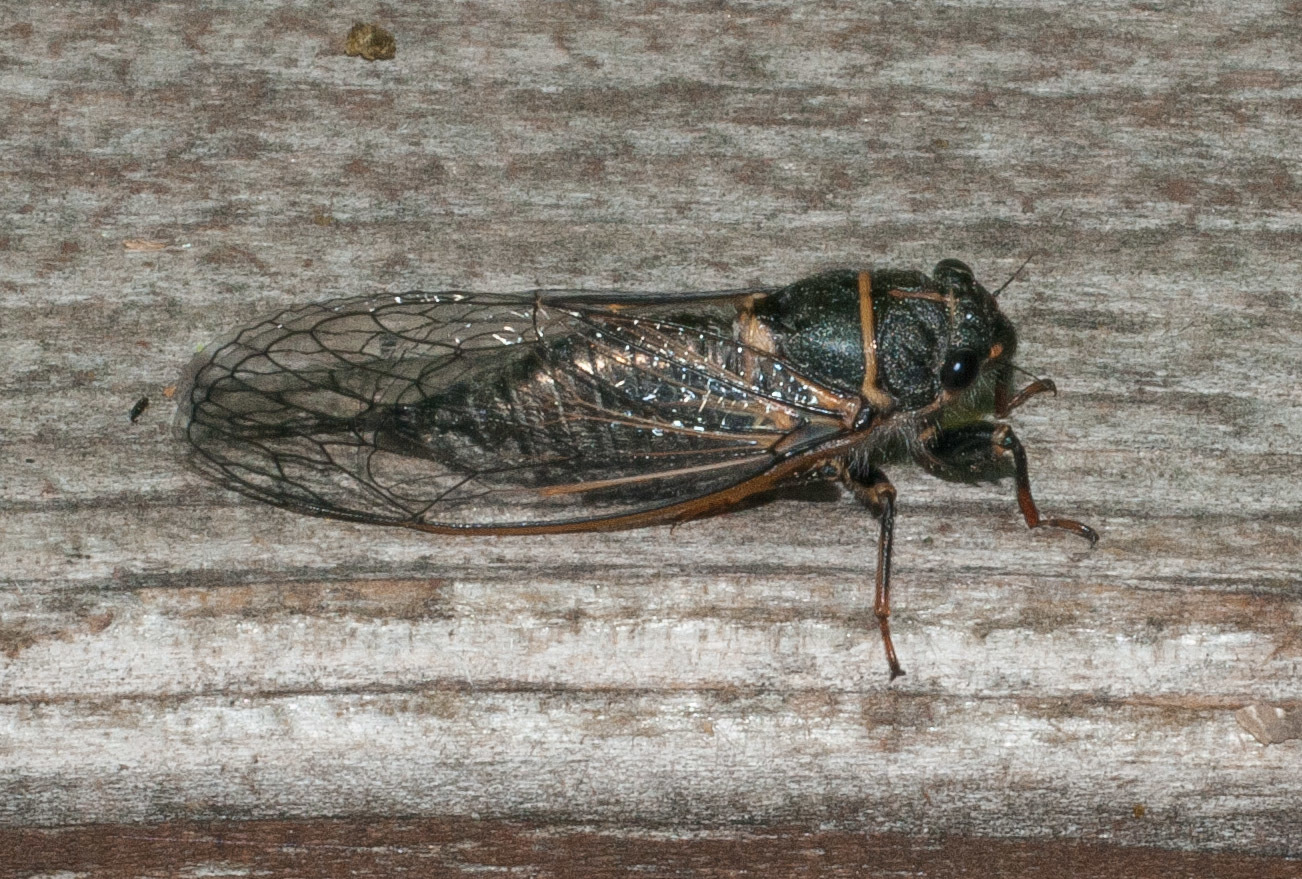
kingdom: Animalia
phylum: Arthropoda
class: Insecta
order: Hemiptera
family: Cicadidae
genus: Platypedia
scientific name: Platypedia putnami
